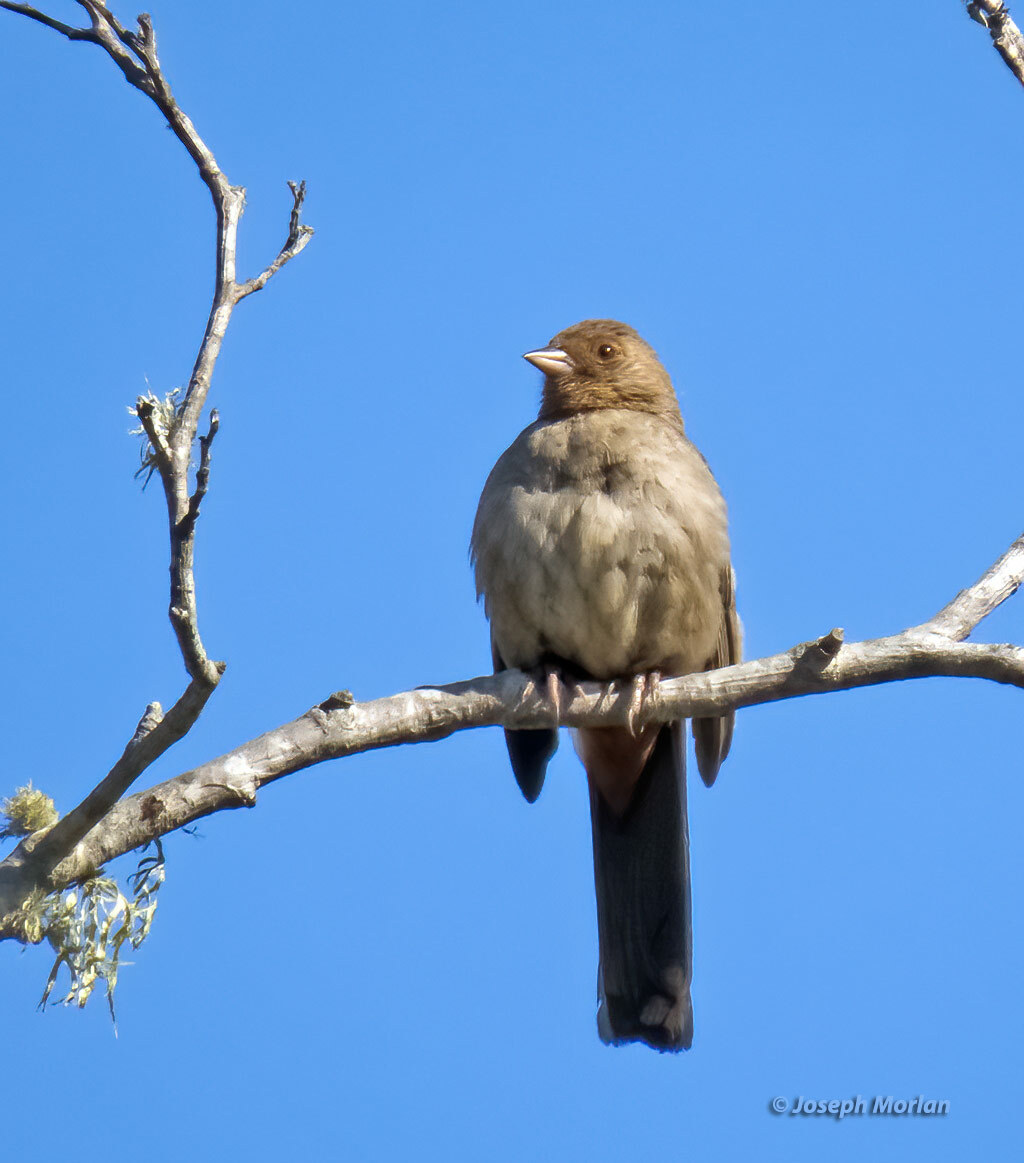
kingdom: Animalia
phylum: Chordata
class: Aves
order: Passeriformes
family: Passerellidae
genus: Melozone
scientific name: Melozone crissalis
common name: California towhee
